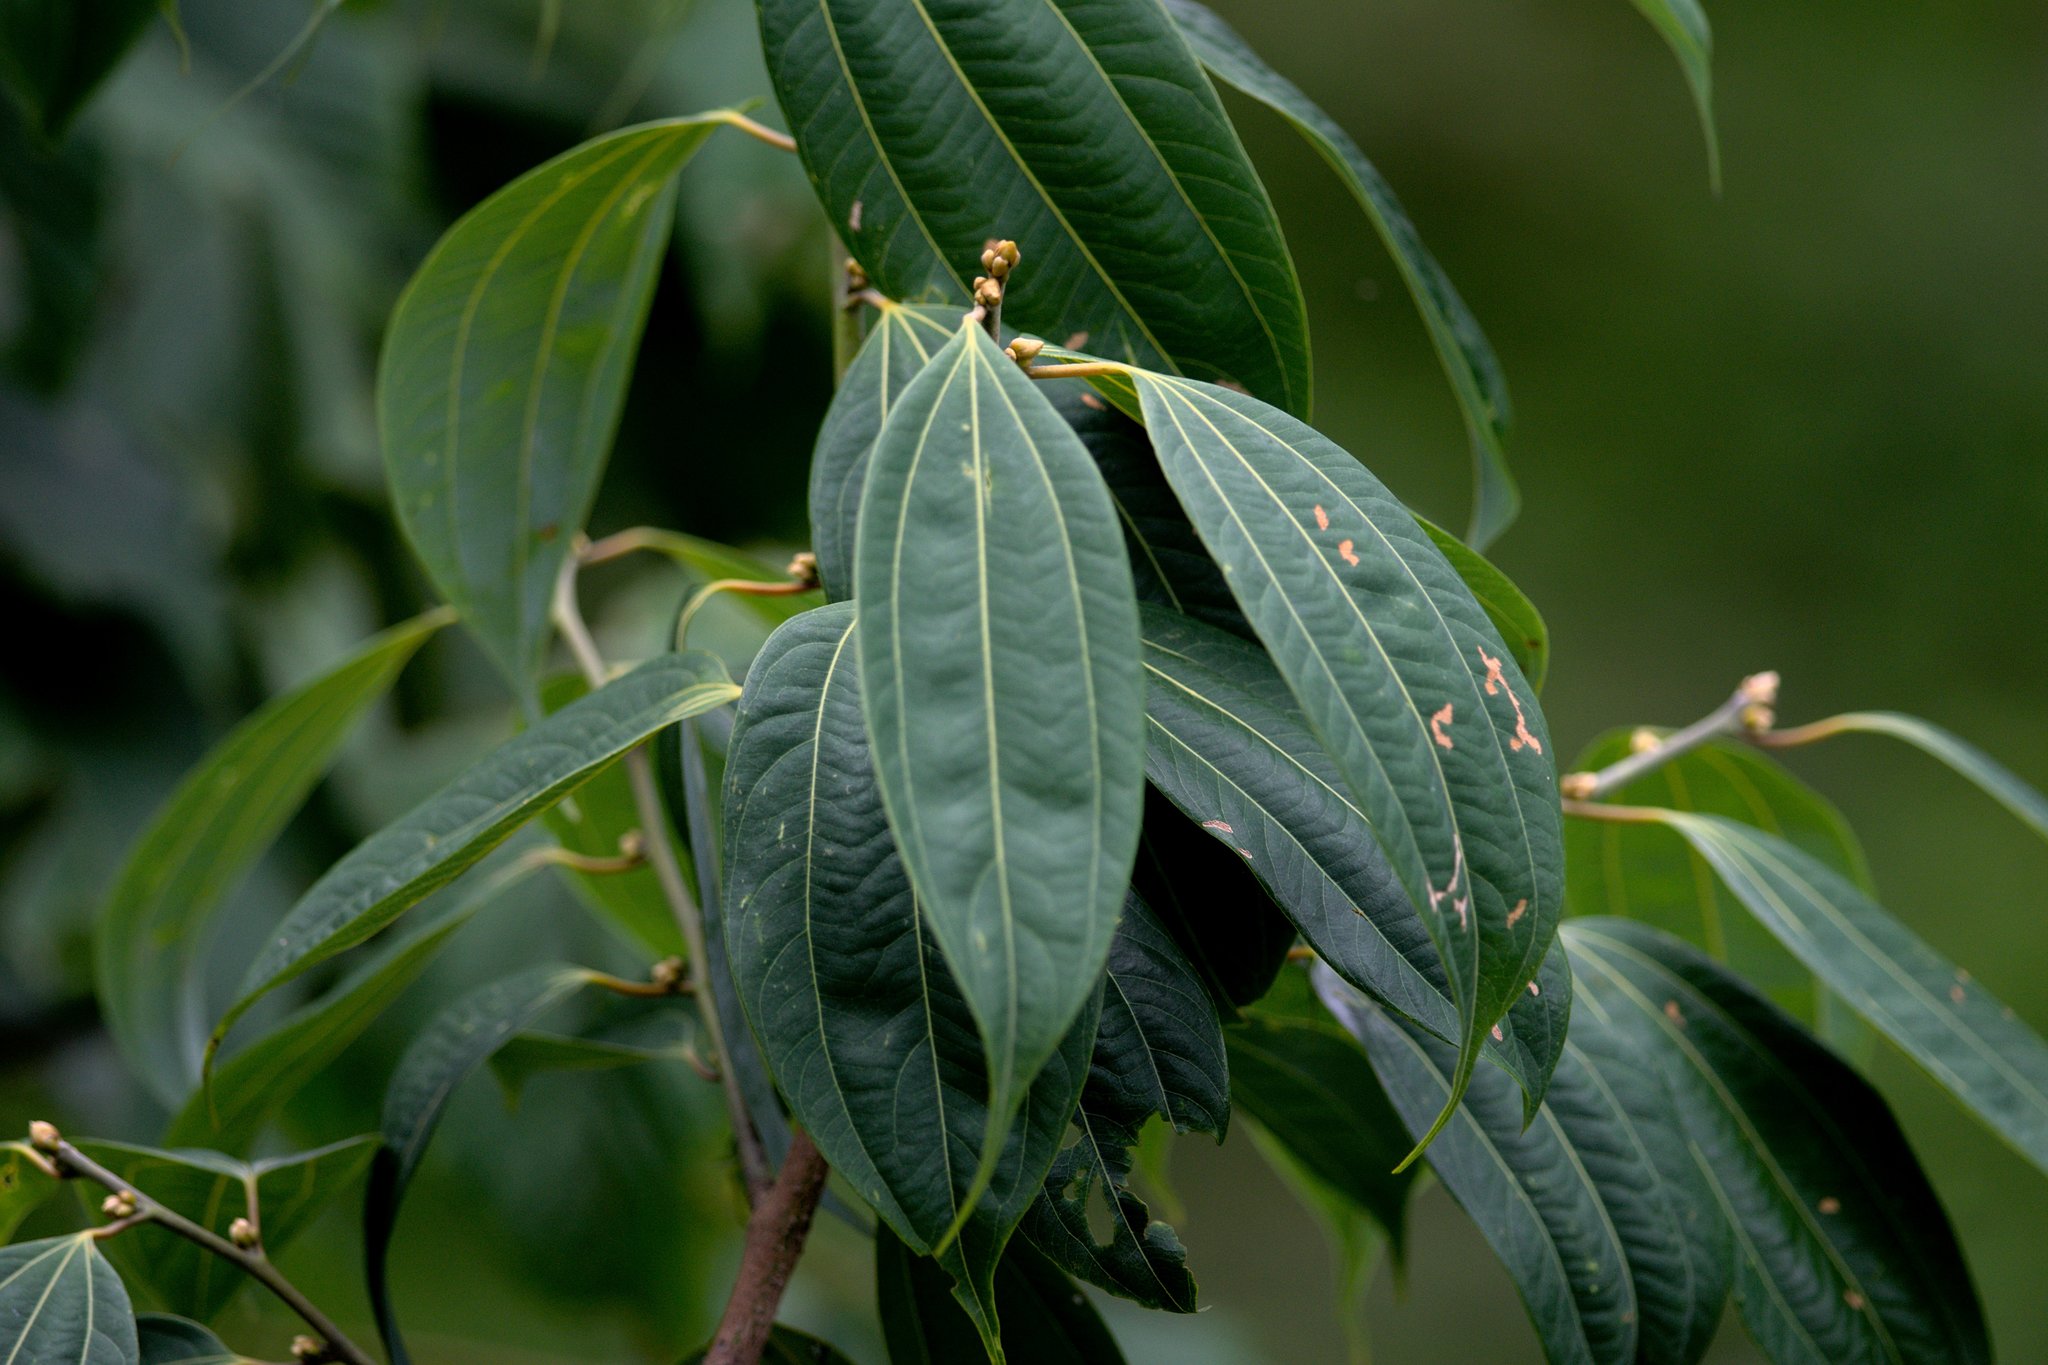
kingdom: Plantae
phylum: Tracheophyta
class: Magnoliopsida
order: Laurales
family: Lauraceae
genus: Lindera
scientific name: Lindera pulcherrima
